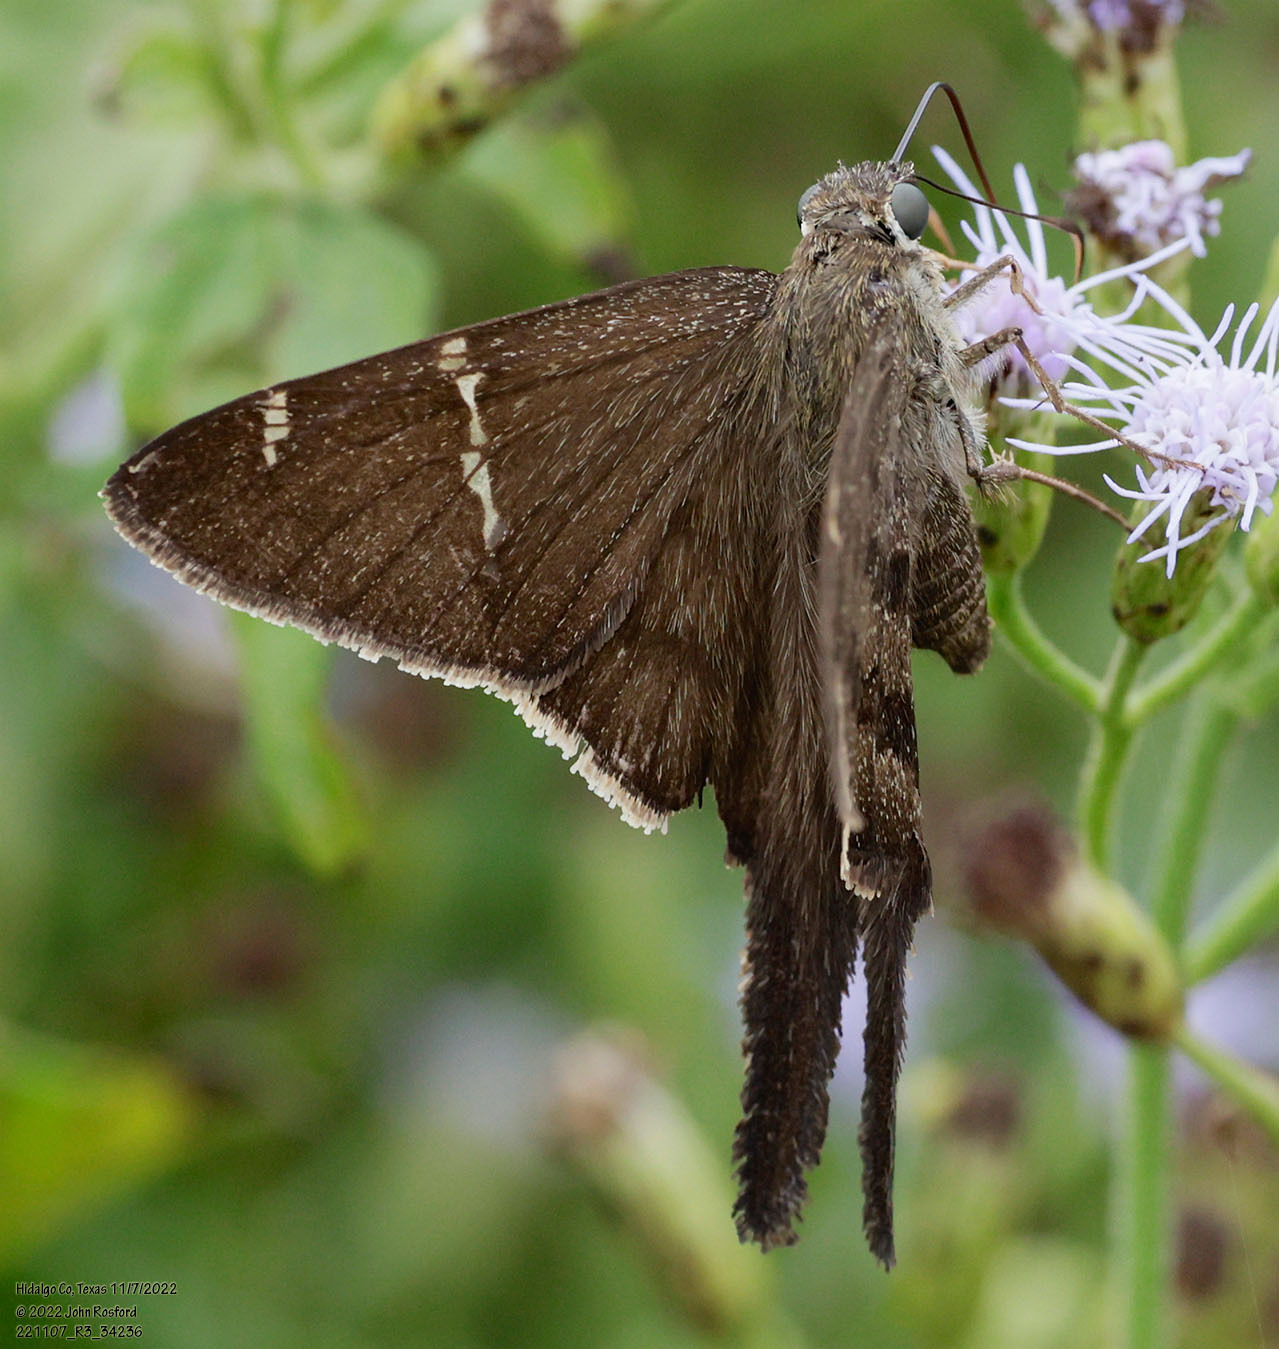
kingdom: Animalia
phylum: Arthropoda
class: Insecta
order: Lepidoptera
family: Hesperiidae
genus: Urbanus
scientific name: Urbanus procne
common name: Brown longtail
